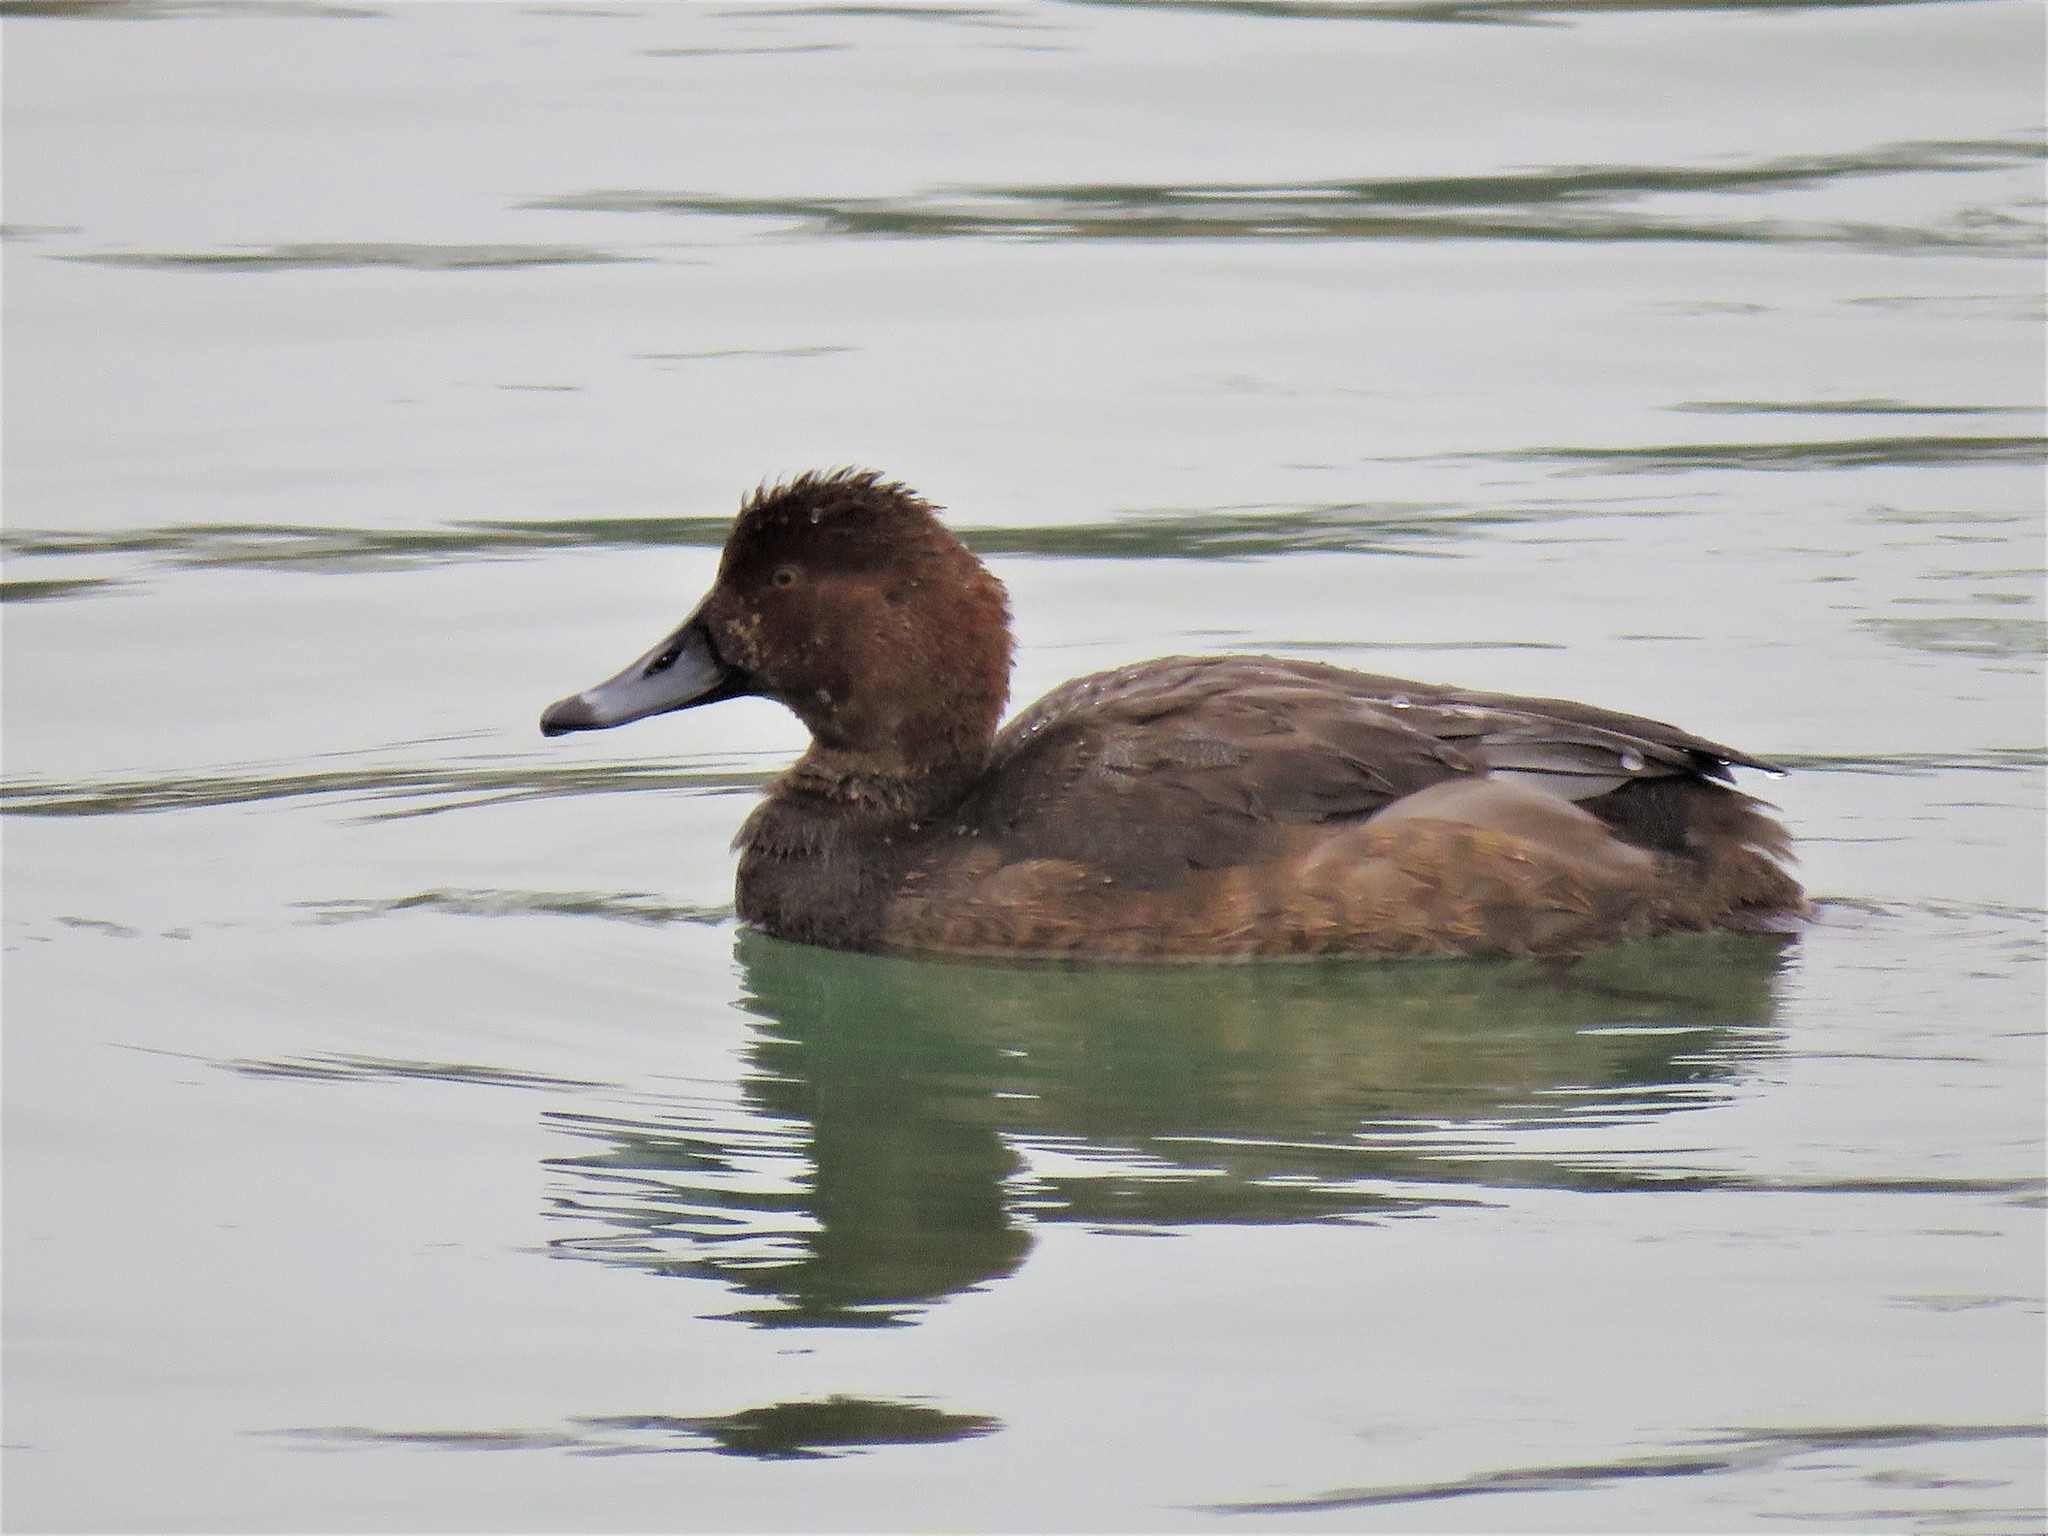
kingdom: Animalia
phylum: Chordata
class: Aves
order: Anseriformes
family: Anatidae
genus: Aythya
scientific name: Aythya americana
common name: Redhead
